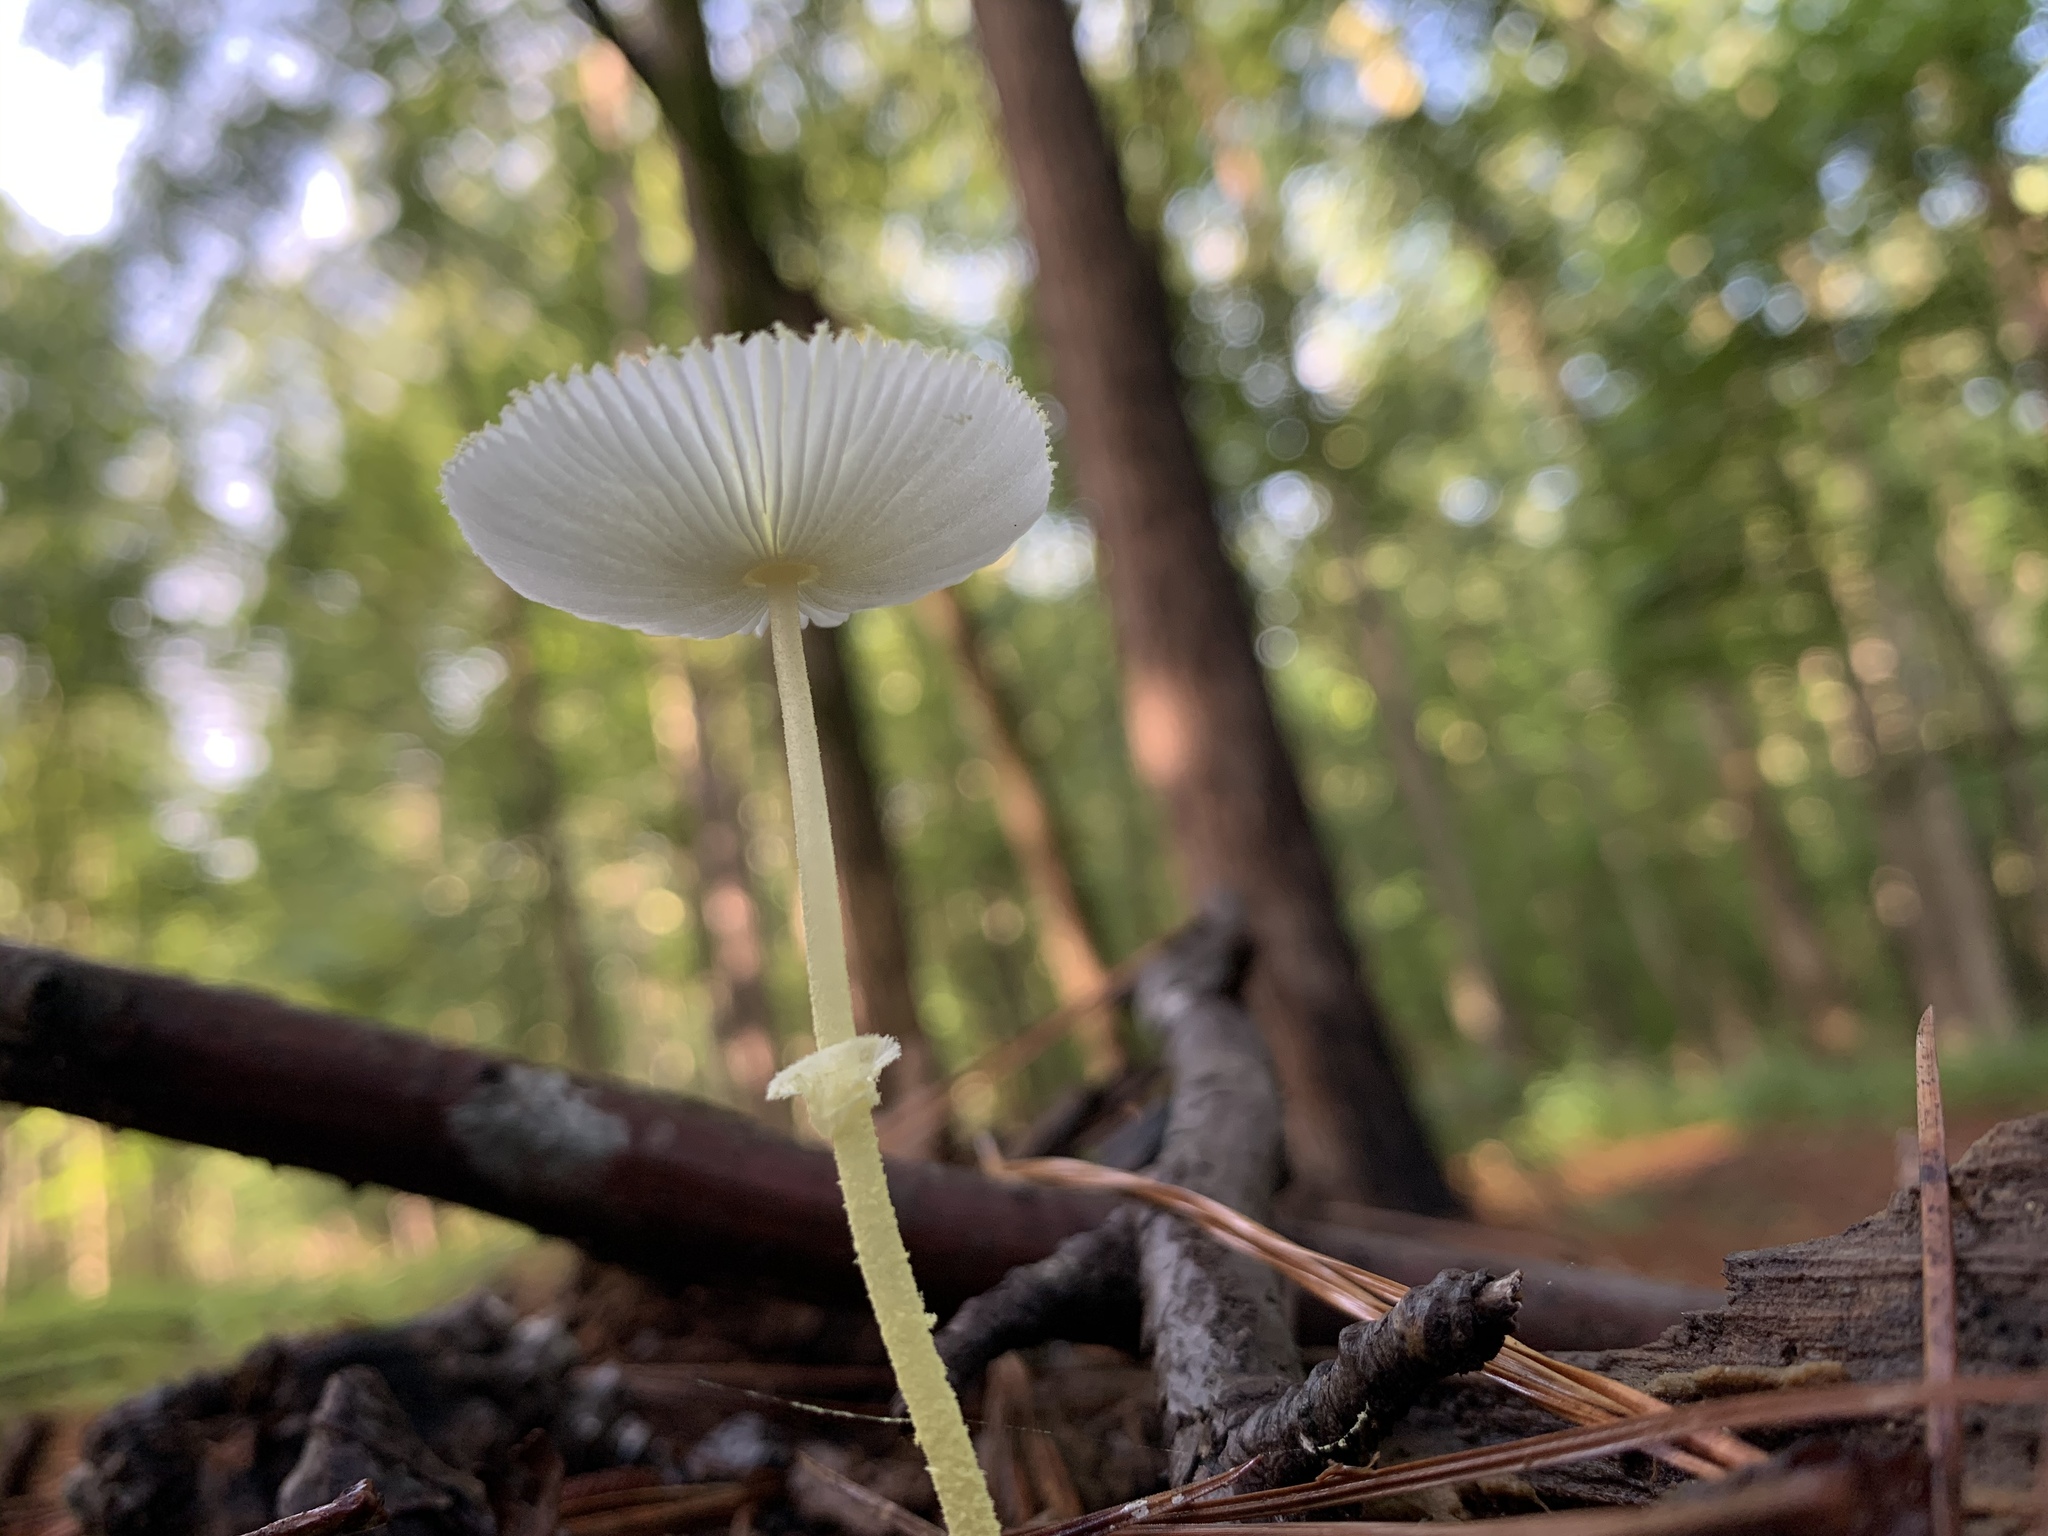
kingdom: Fungi
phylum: Basidiomycota
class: Agaricomycetes
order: Agaricales
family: Agaricaceae
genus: Leucocoprinus
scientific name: Leucocoprinus fragilissimus
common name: Fragile dapperling
